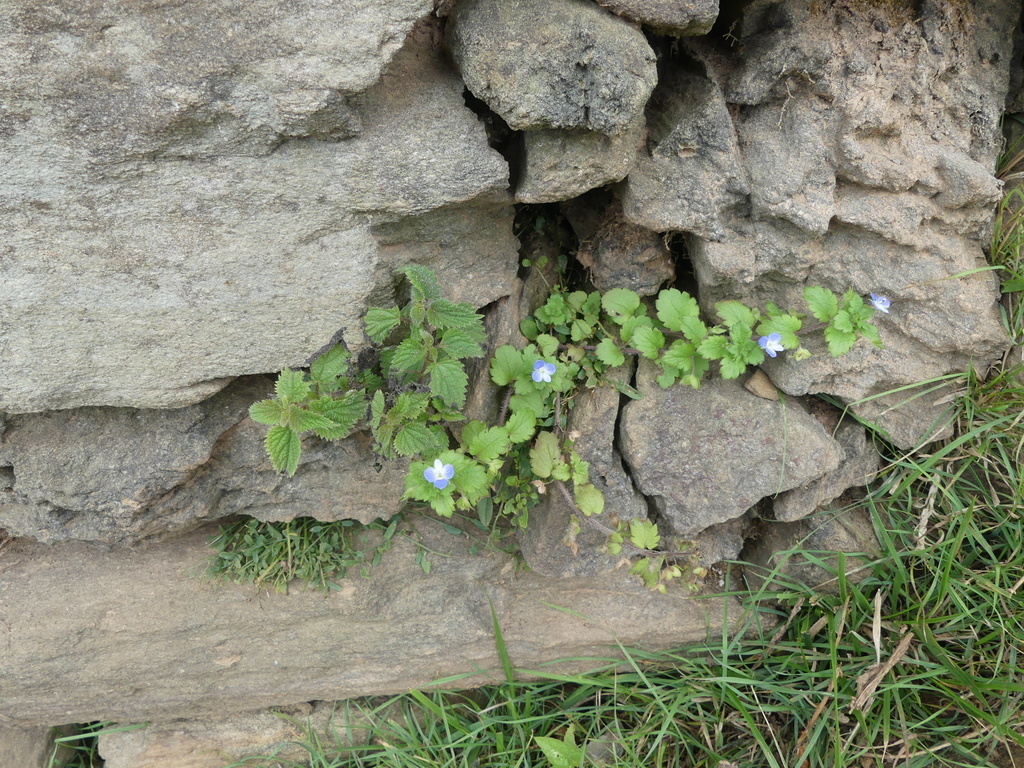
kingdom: Plantae
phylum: Tracheophyta
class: Magnoliopsida
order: Lamiales
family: Plantaginaceae
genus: Veronica
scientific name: Veronica persica
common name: Common field-speedwell
